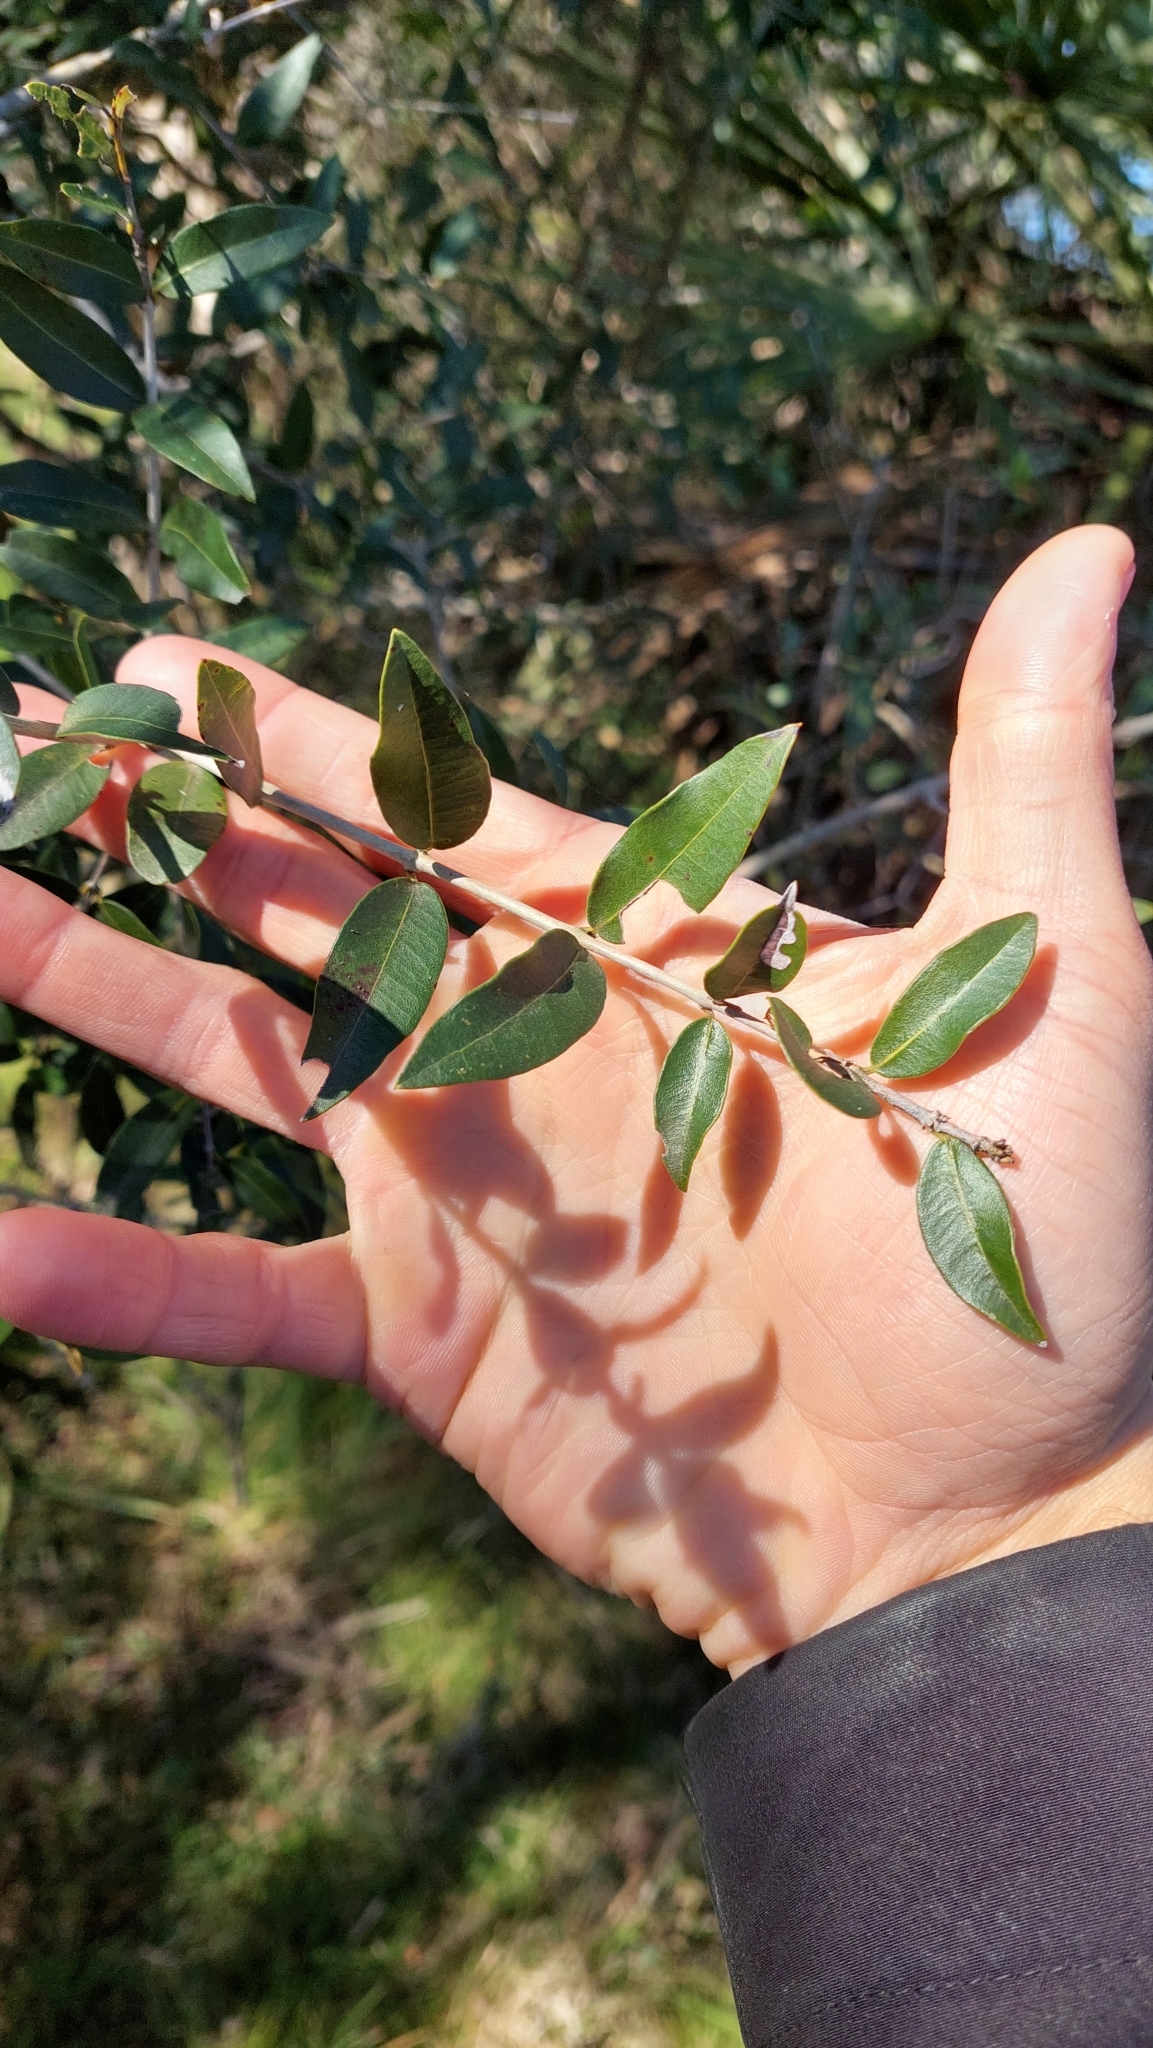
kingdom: Plantae
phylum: Tracheophyta
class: Magnoliopsida
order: Myrtales
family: Myrtaceae
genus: Myrcianthes
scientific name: Myrcianthes cisplatensis
